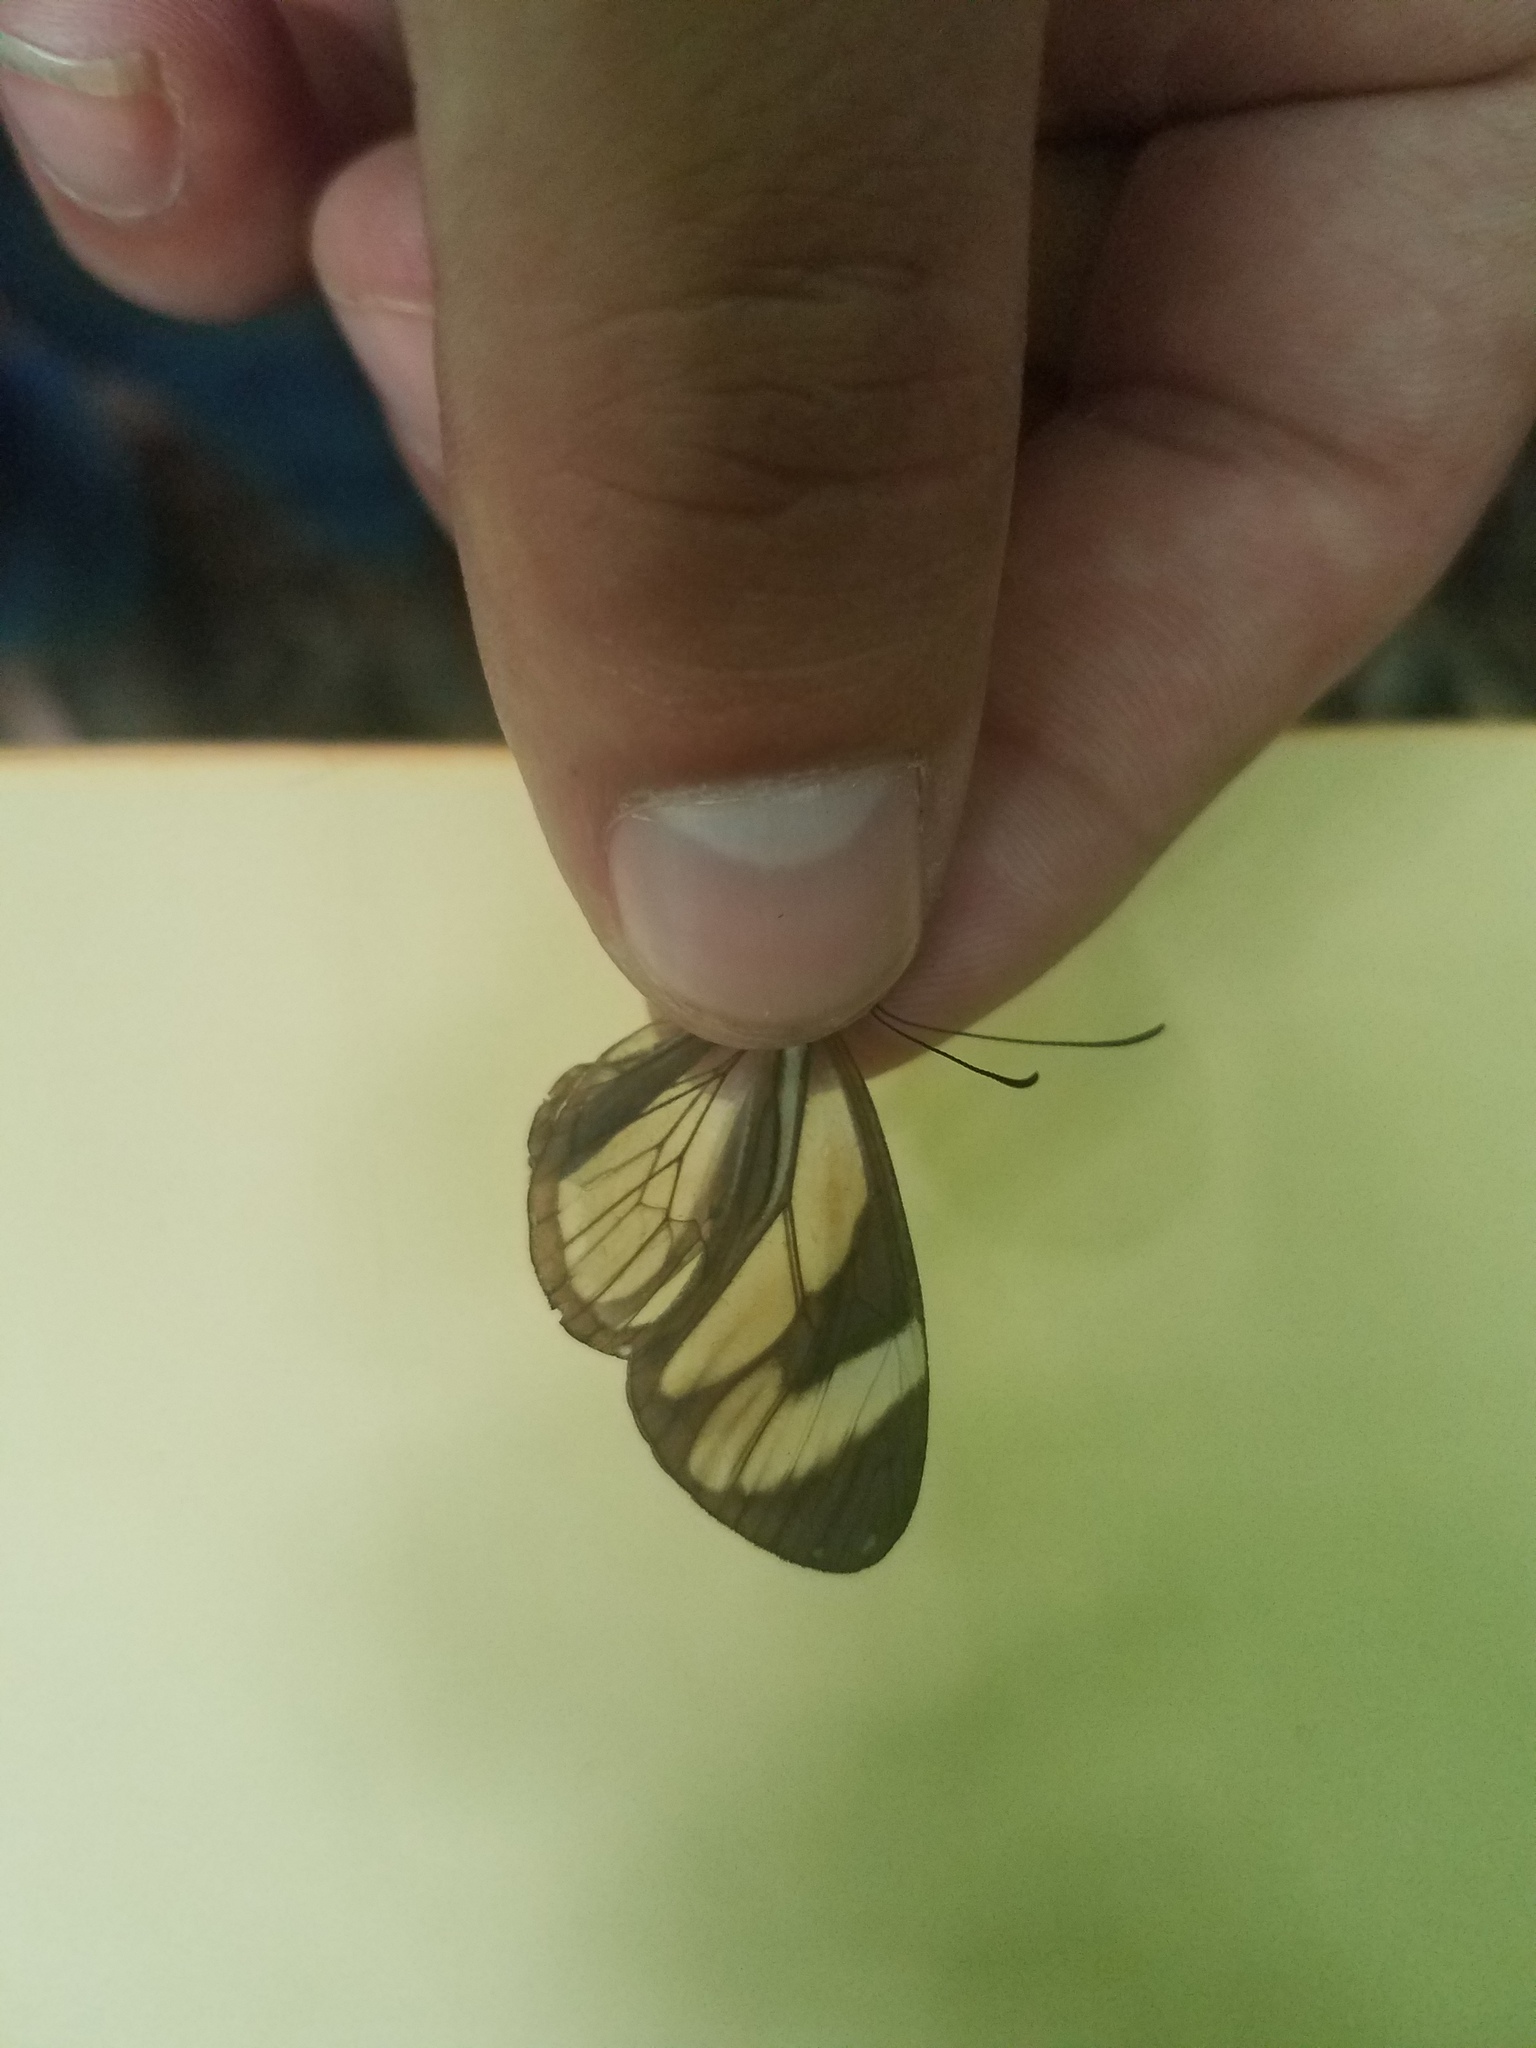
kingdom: Animalia
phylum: Arthropoda
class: Insecta
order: Lepidoptera
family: Nymphalidae
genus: Ithomia
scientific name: Ithomia patilla
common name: Patilla clearwing
